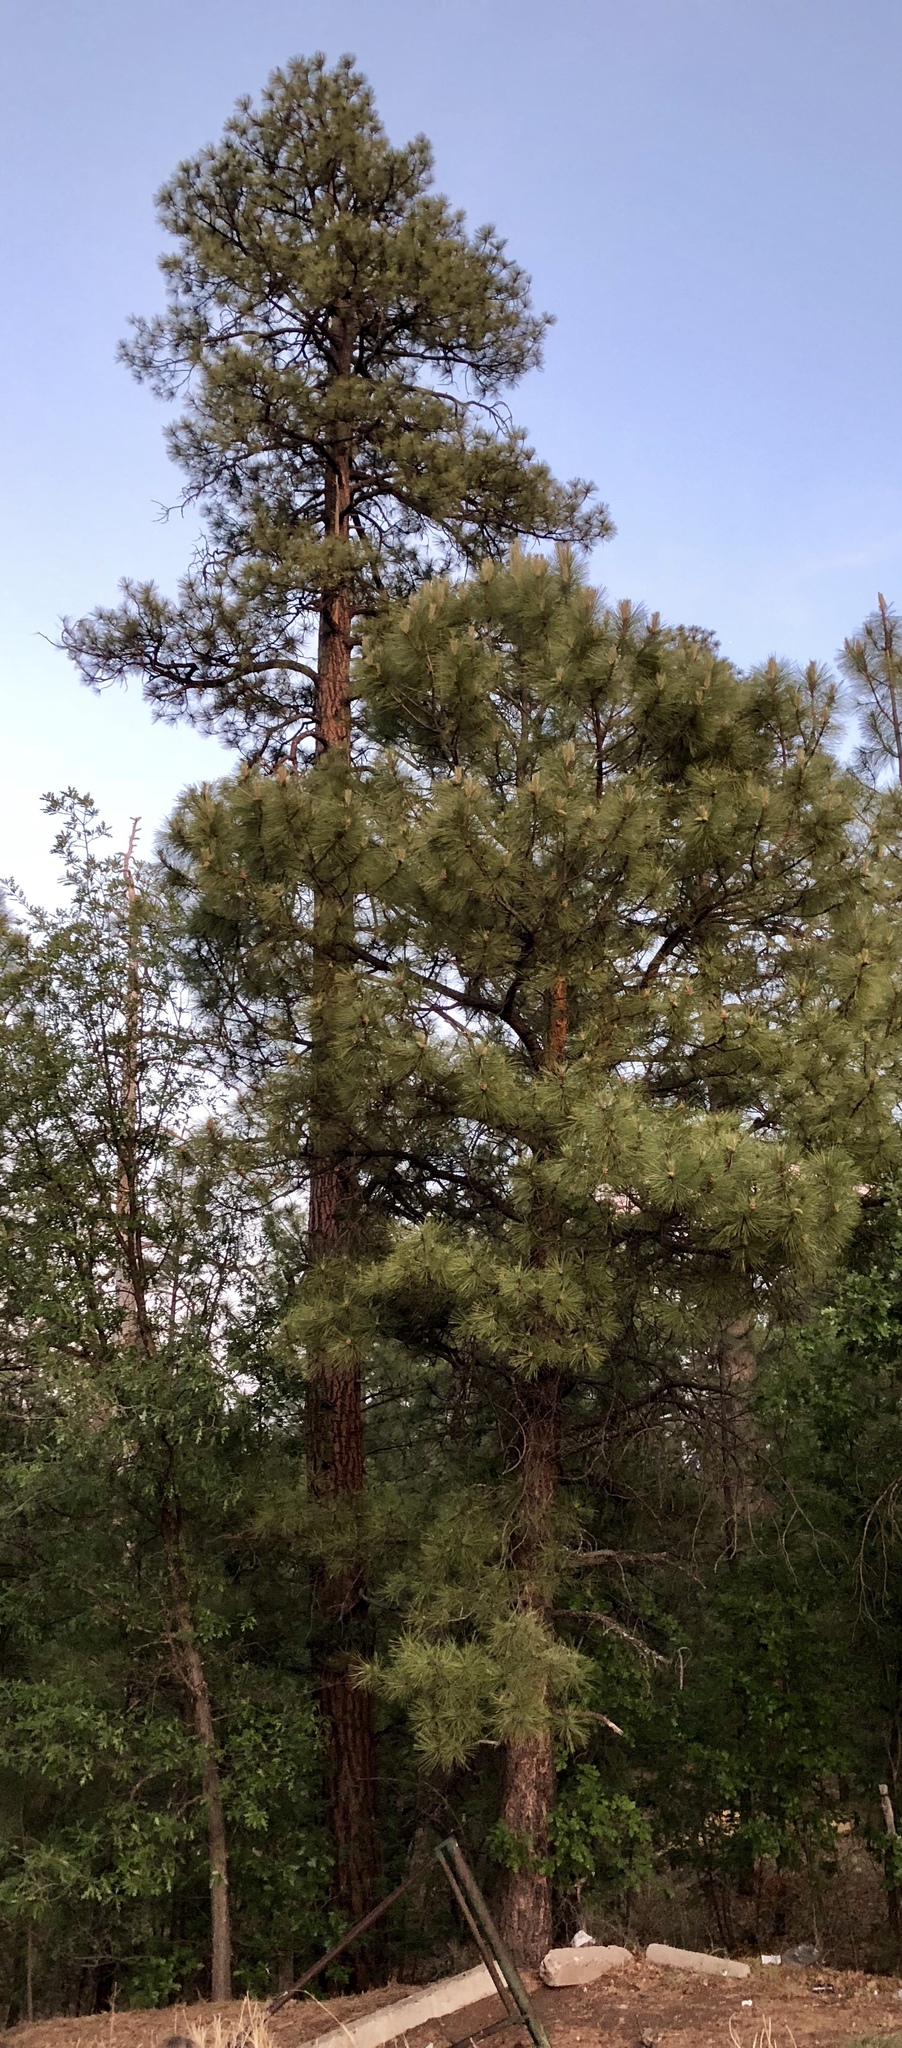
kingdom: Plantae
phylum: Tracheophyta
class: Pinopsida
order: Pinales
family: Pinaceae
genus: Pinus
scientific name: Pinus ponderosa
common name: Western yellow-pine
